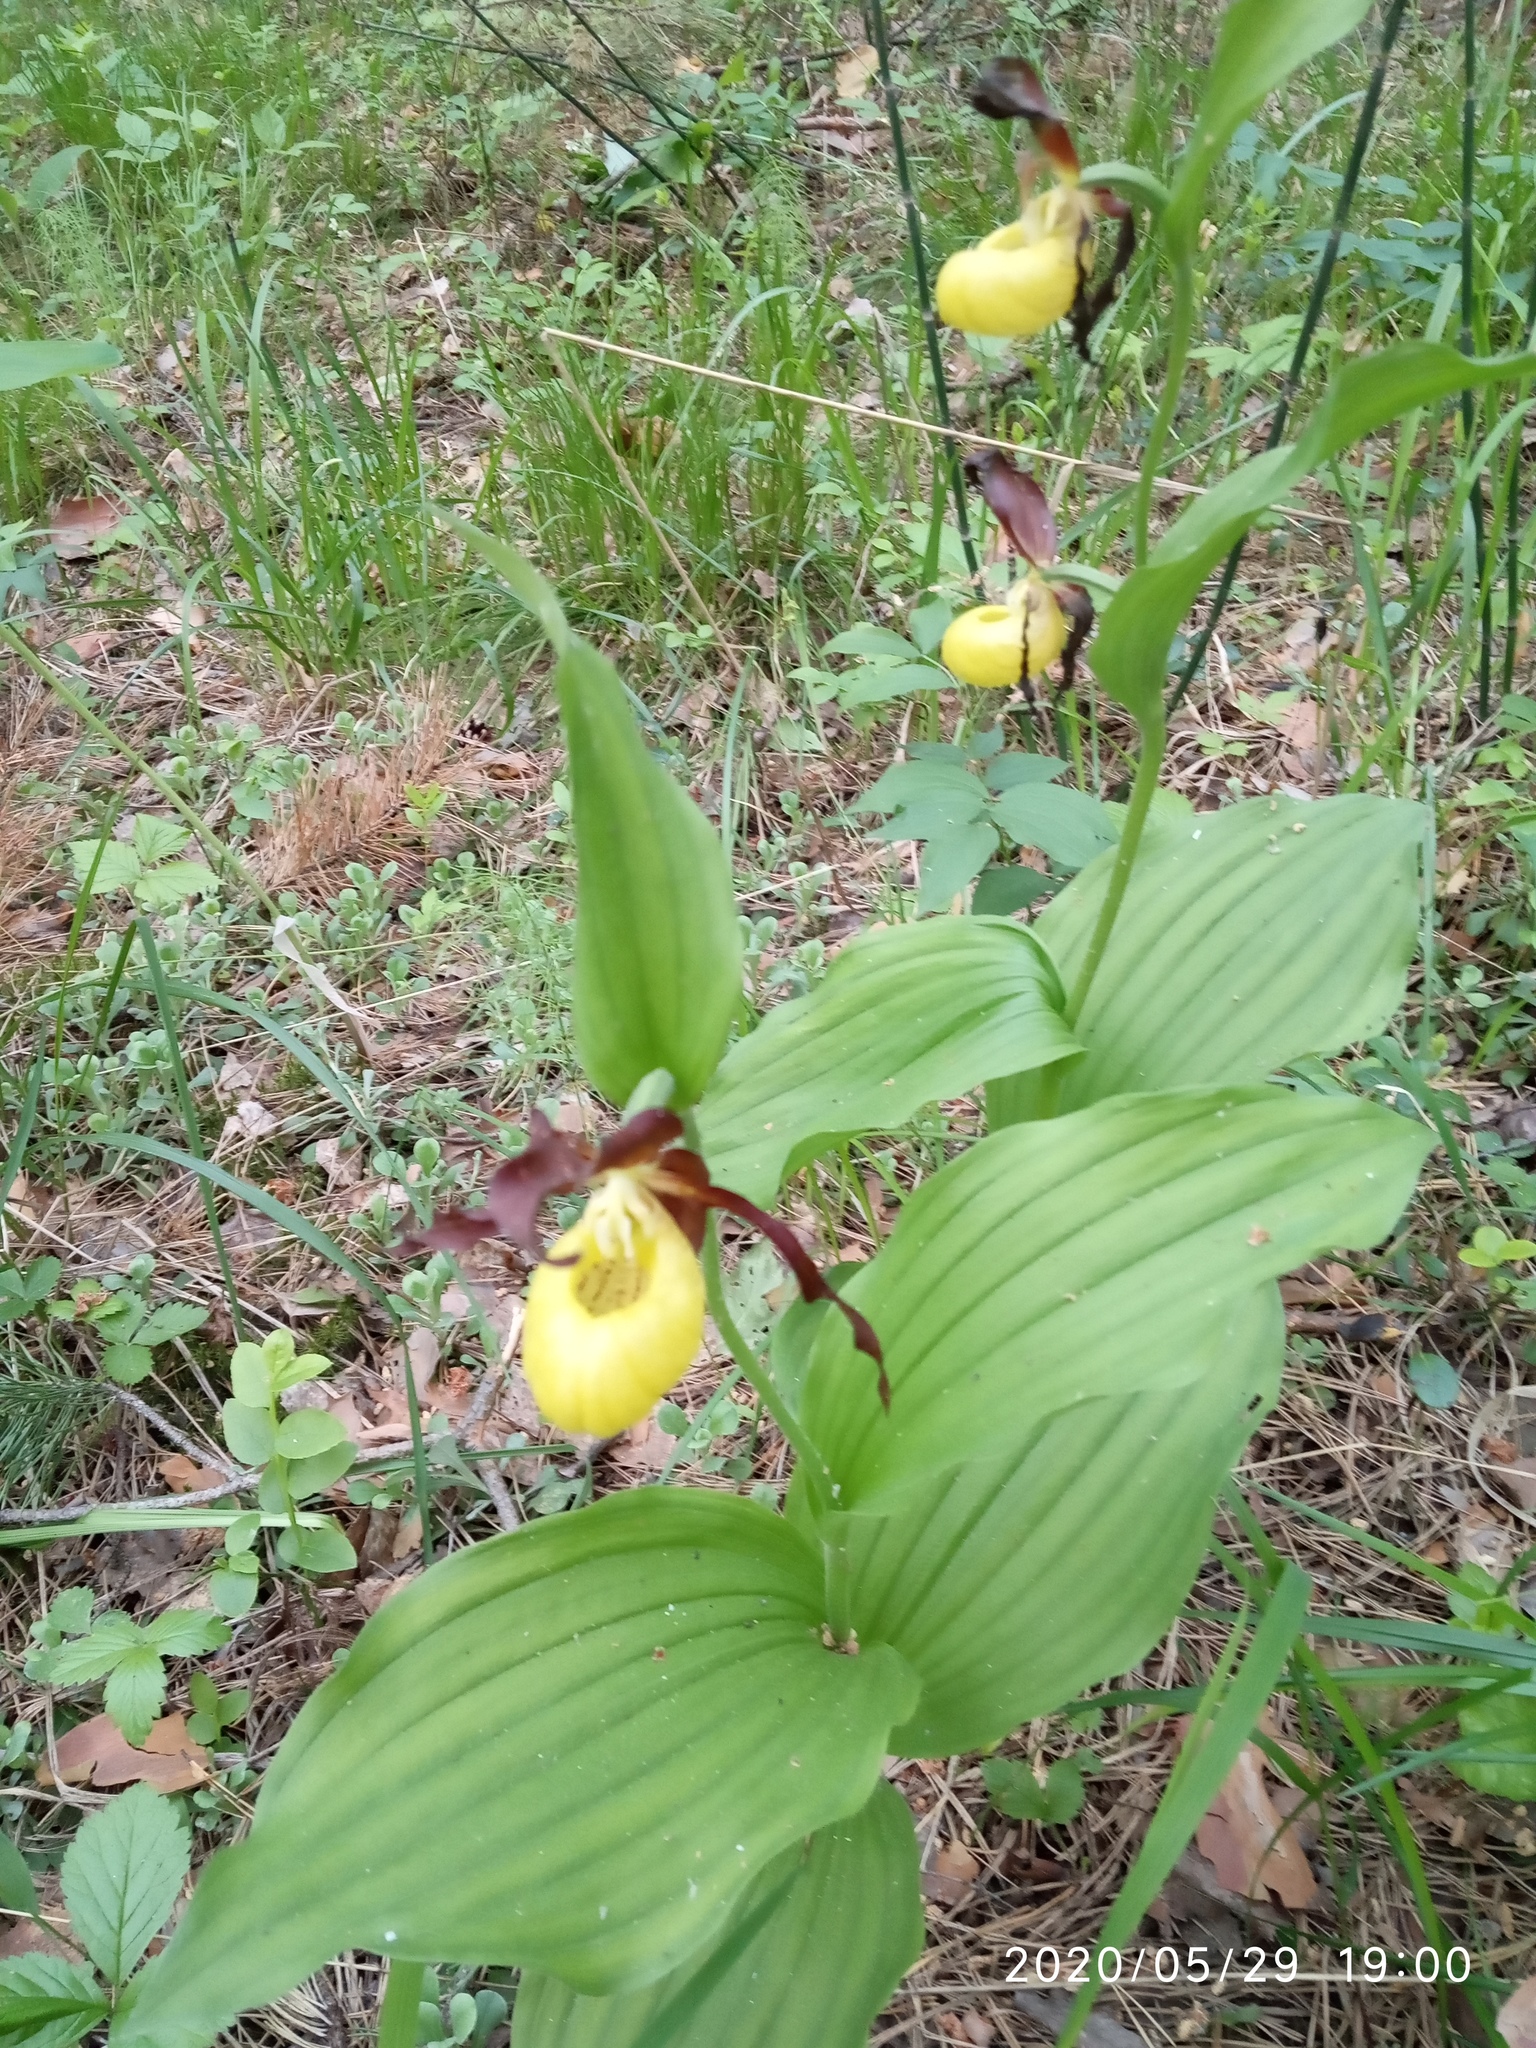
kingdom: Plantae
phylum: Tracheophyta
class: Liliopsida
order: Asparagales
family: Orchidaceae
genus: Cypripedium
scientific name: Cypripedium calceolus
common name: Lady's-slipper
